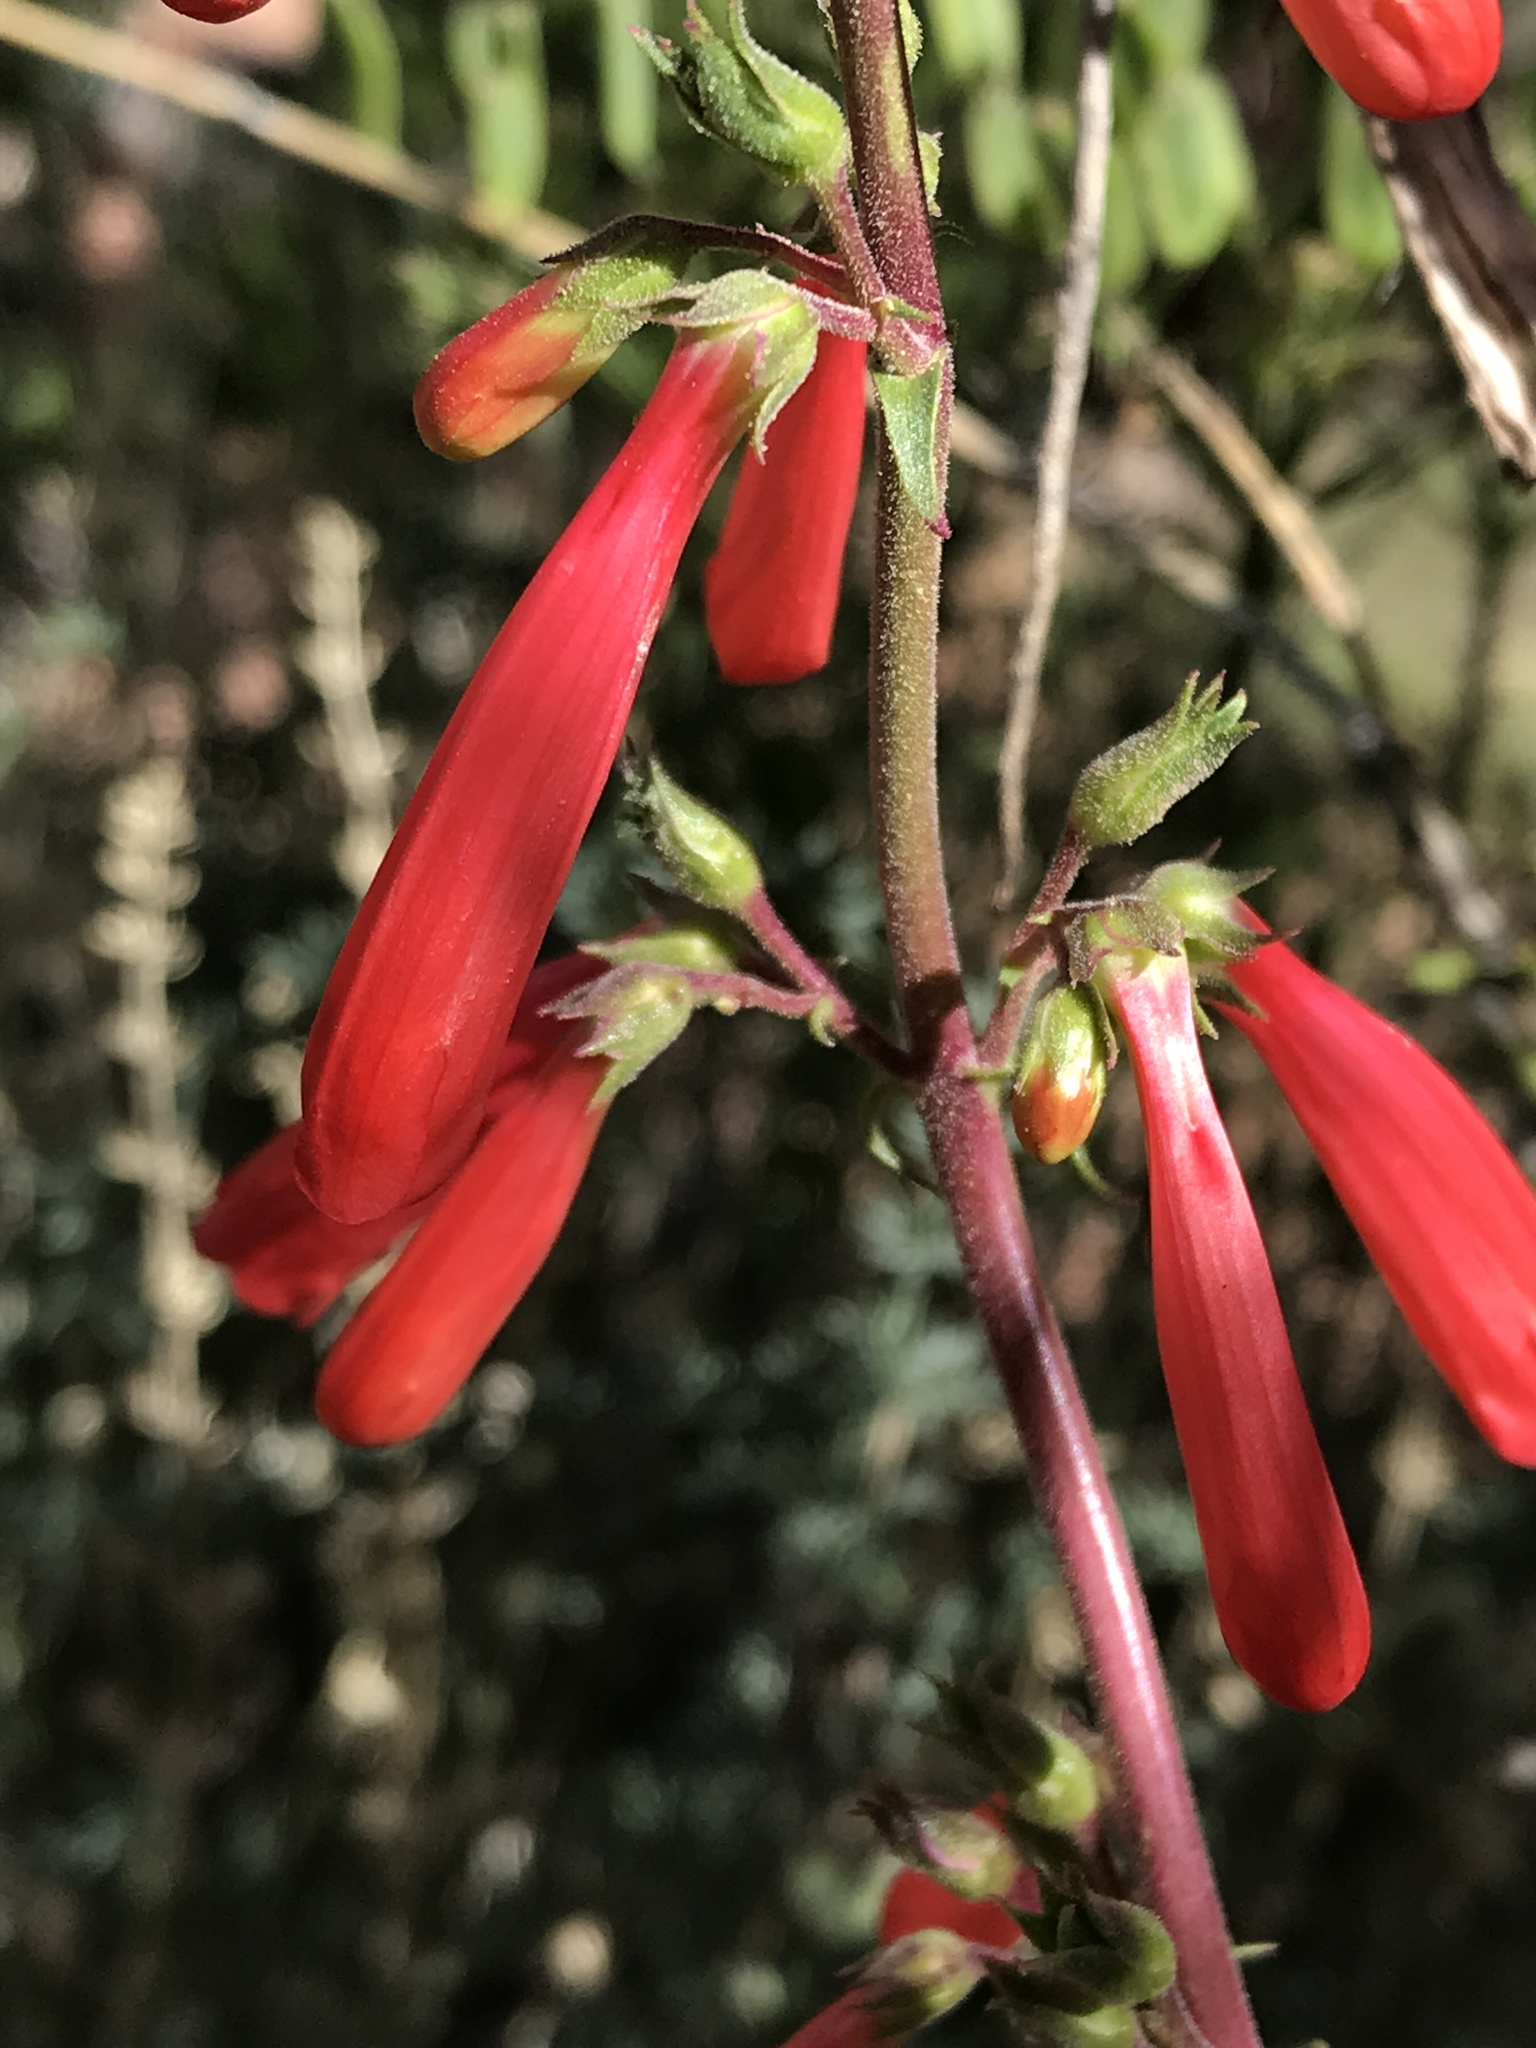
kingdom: Plantae
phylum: Tracheophyta
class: Magnoliopsida
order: Lamiales
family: Plantaginaceae
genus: Penstemon
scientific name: Penstemon eatonii
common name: Eaton's penstemon
